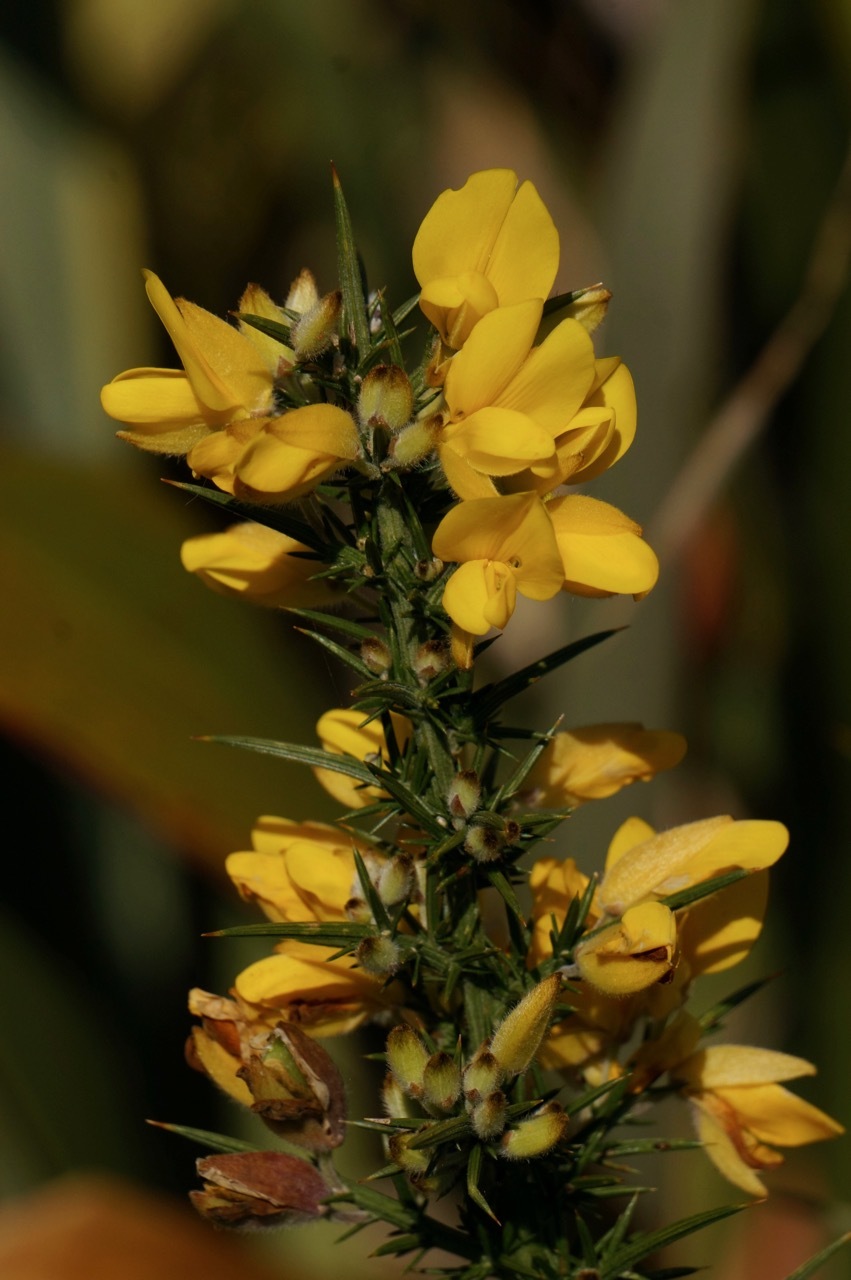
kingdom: Plantae
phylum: Tracheophyta
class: Magnoliopsida
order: Fabales
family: Fabaceae
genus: Ulex
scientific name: Ulex europaeus
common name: Common gorse
